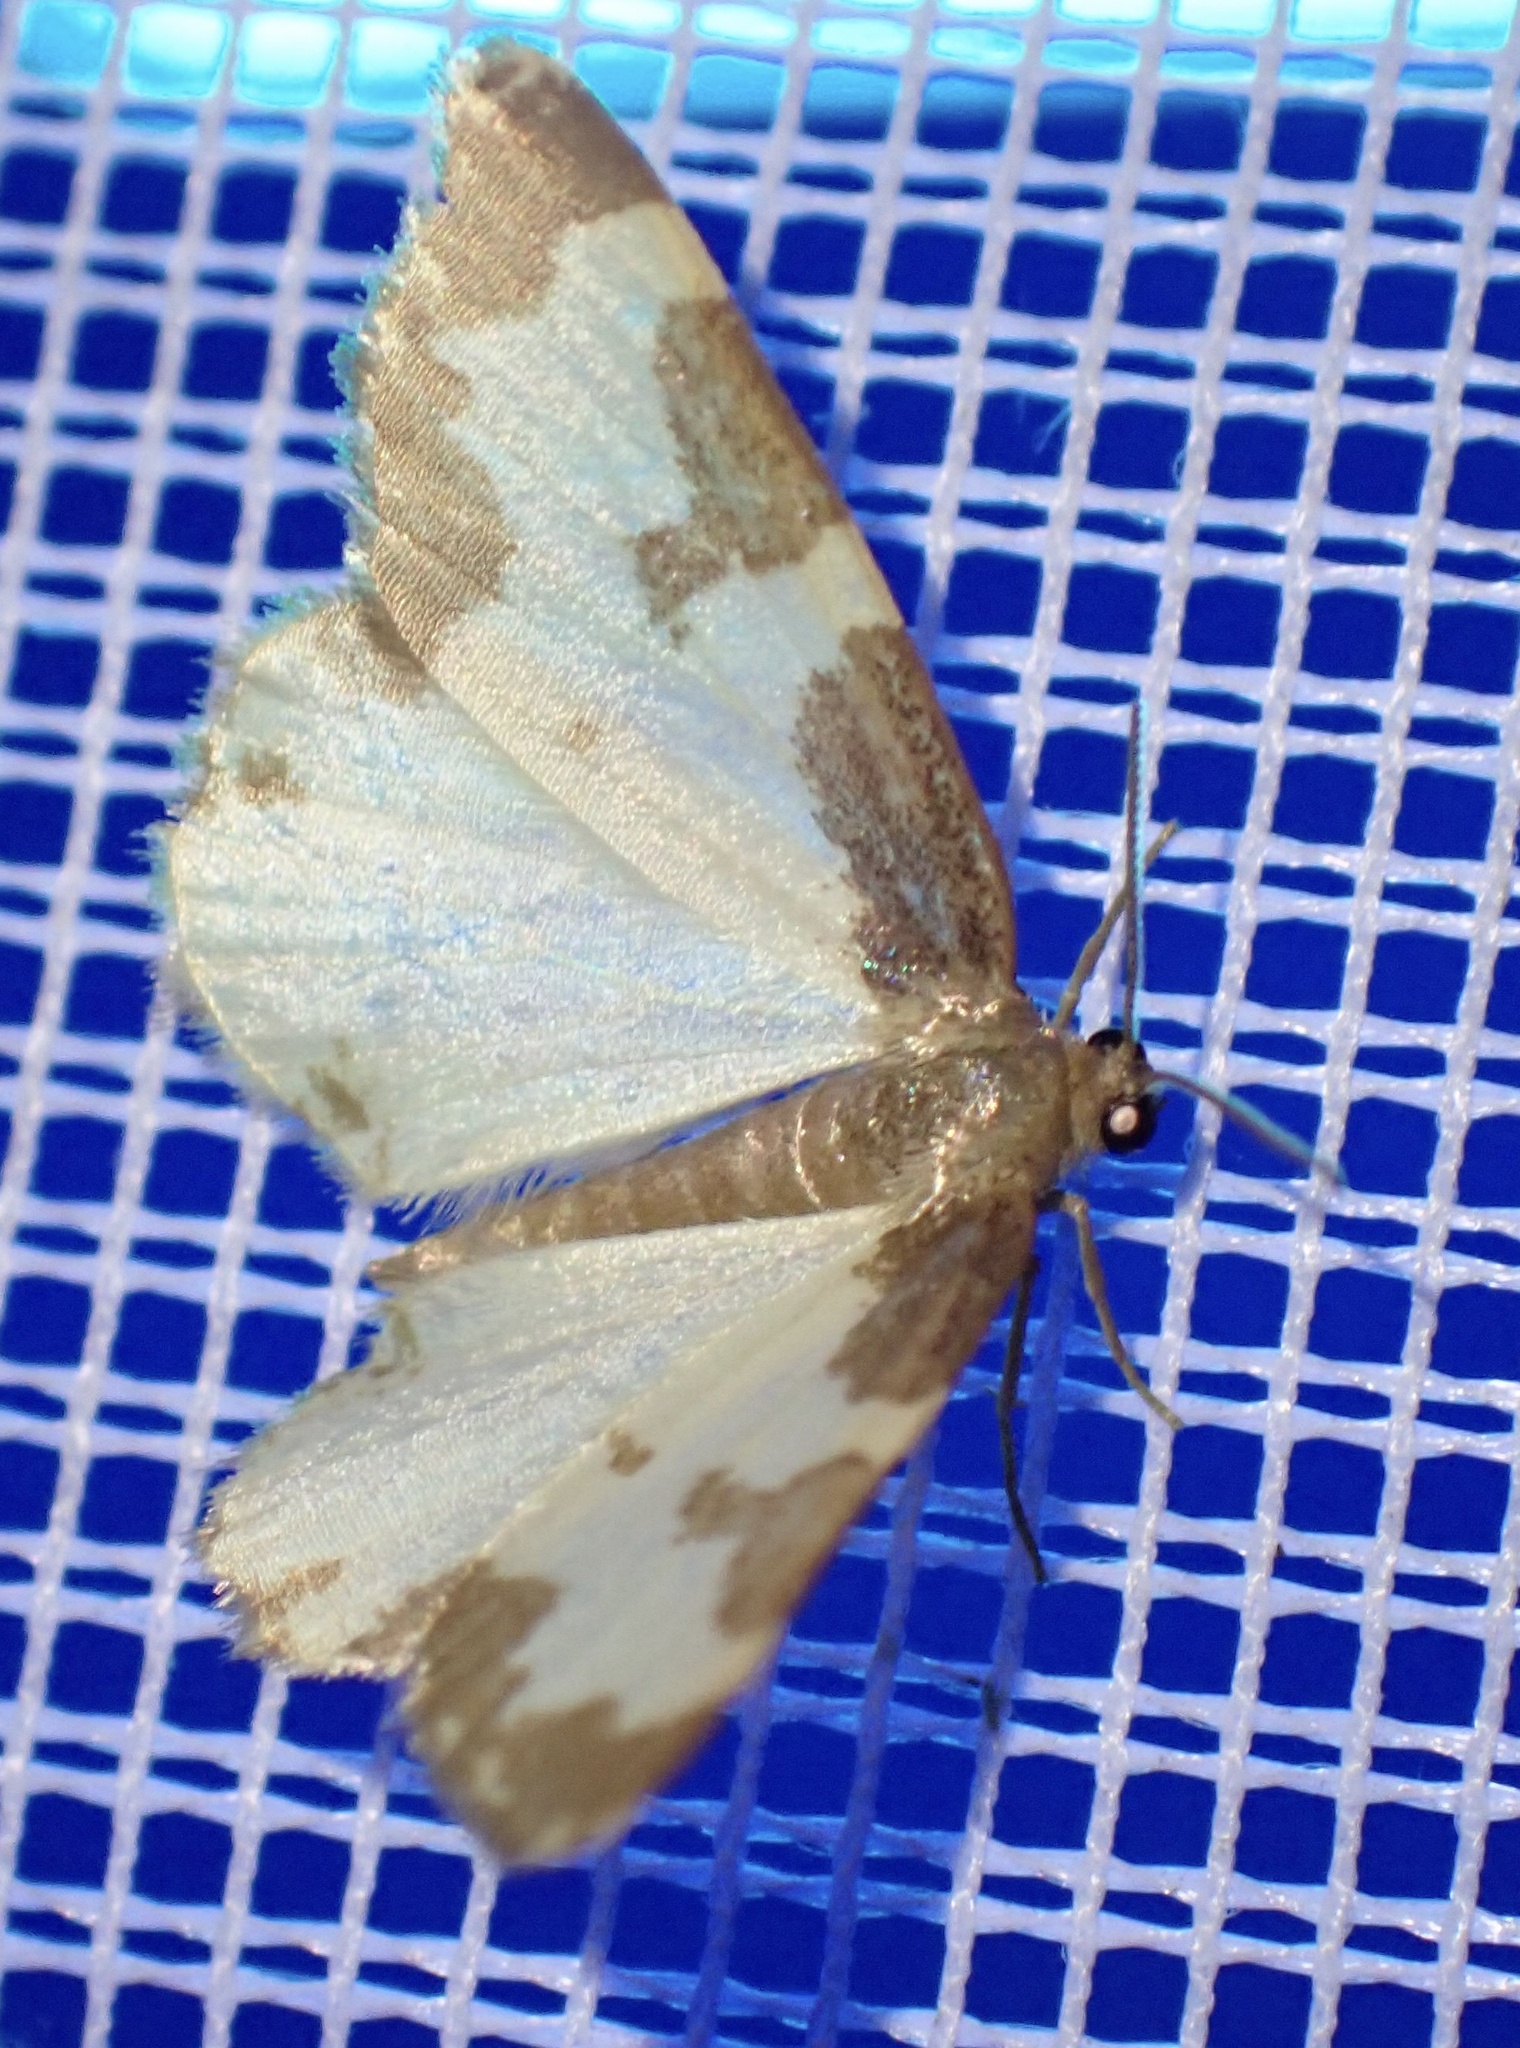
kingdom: Animalia
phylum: Arthropoda
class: Insecta
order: Lepidoptera
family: Geometridae
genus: Lomaspilis
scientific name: Lomaspilis marginata
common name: Clouded border
